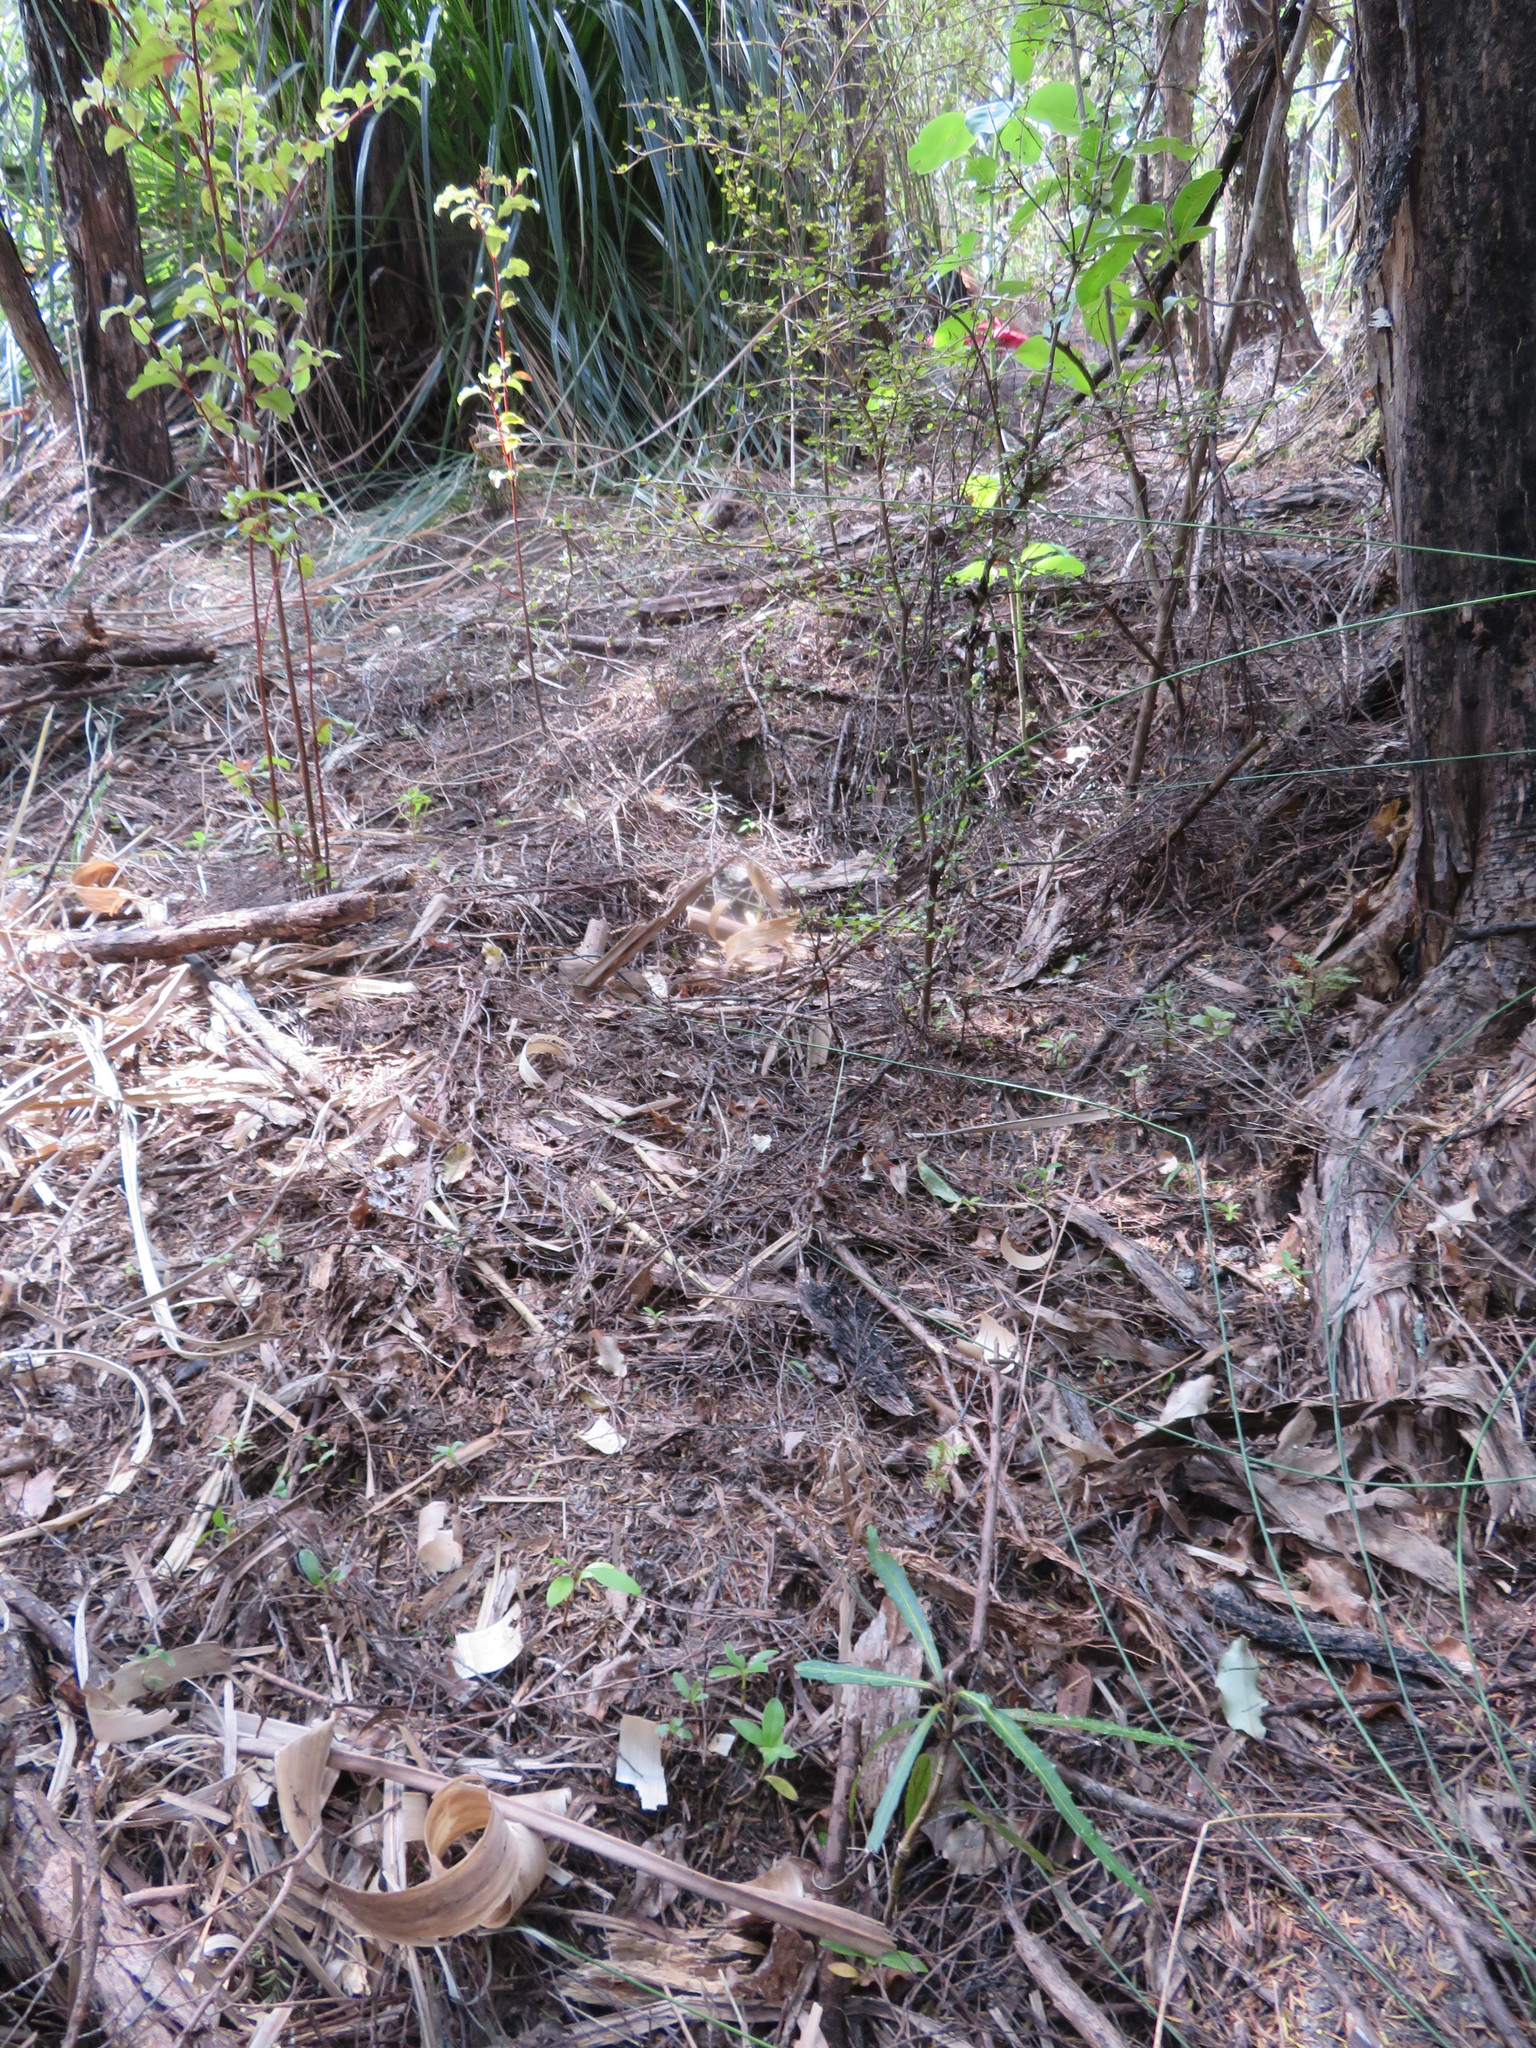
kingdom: Plantae
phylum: Tracheophyta
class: Magnoliopsida
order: Gentianales
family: Rubiaceae
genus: Coprosma
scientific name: Coprosma robusta
